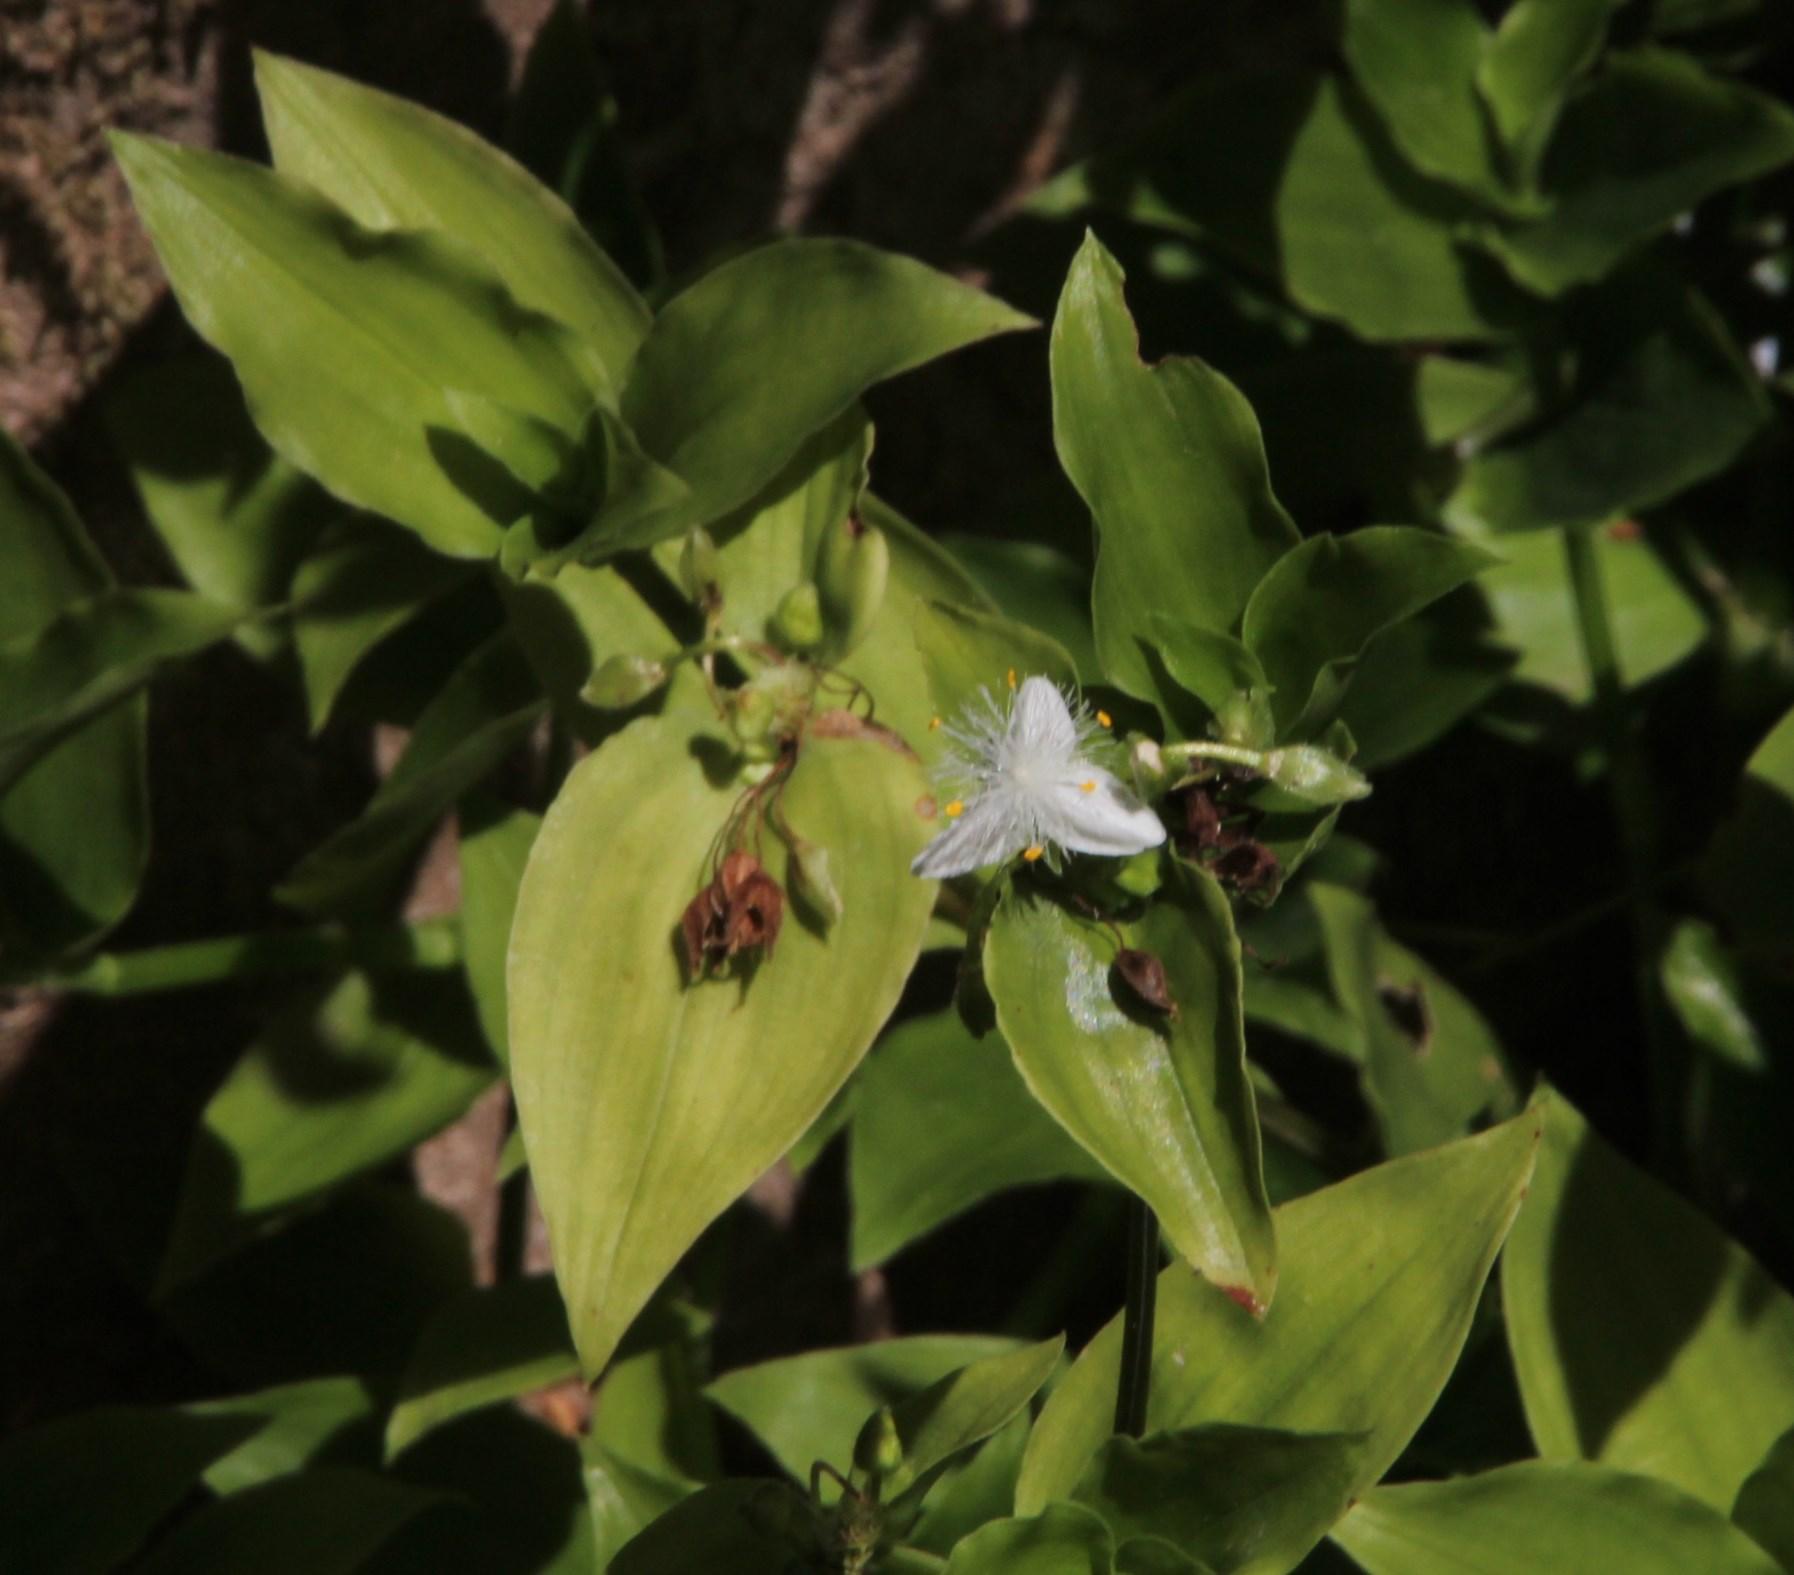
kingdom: Plantae
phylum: Tracheophyta
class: Liliopsida
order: Commelinales
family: Commelinaceae
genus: Tradescantia
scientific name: Tradescantia fluminensis
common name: Wandering-jew
